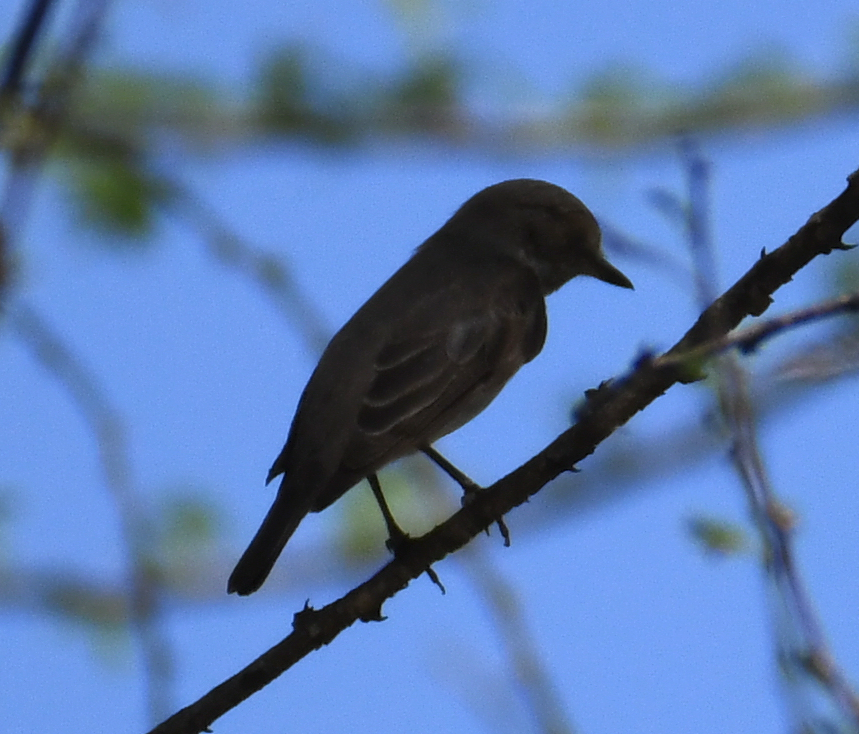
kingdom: Animalia
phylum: Chordata
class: Aves
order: Passeriformes
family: Muscicapidae
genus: Muscicapa
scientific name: Muscicapa striata
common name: Spotted flycatcher
